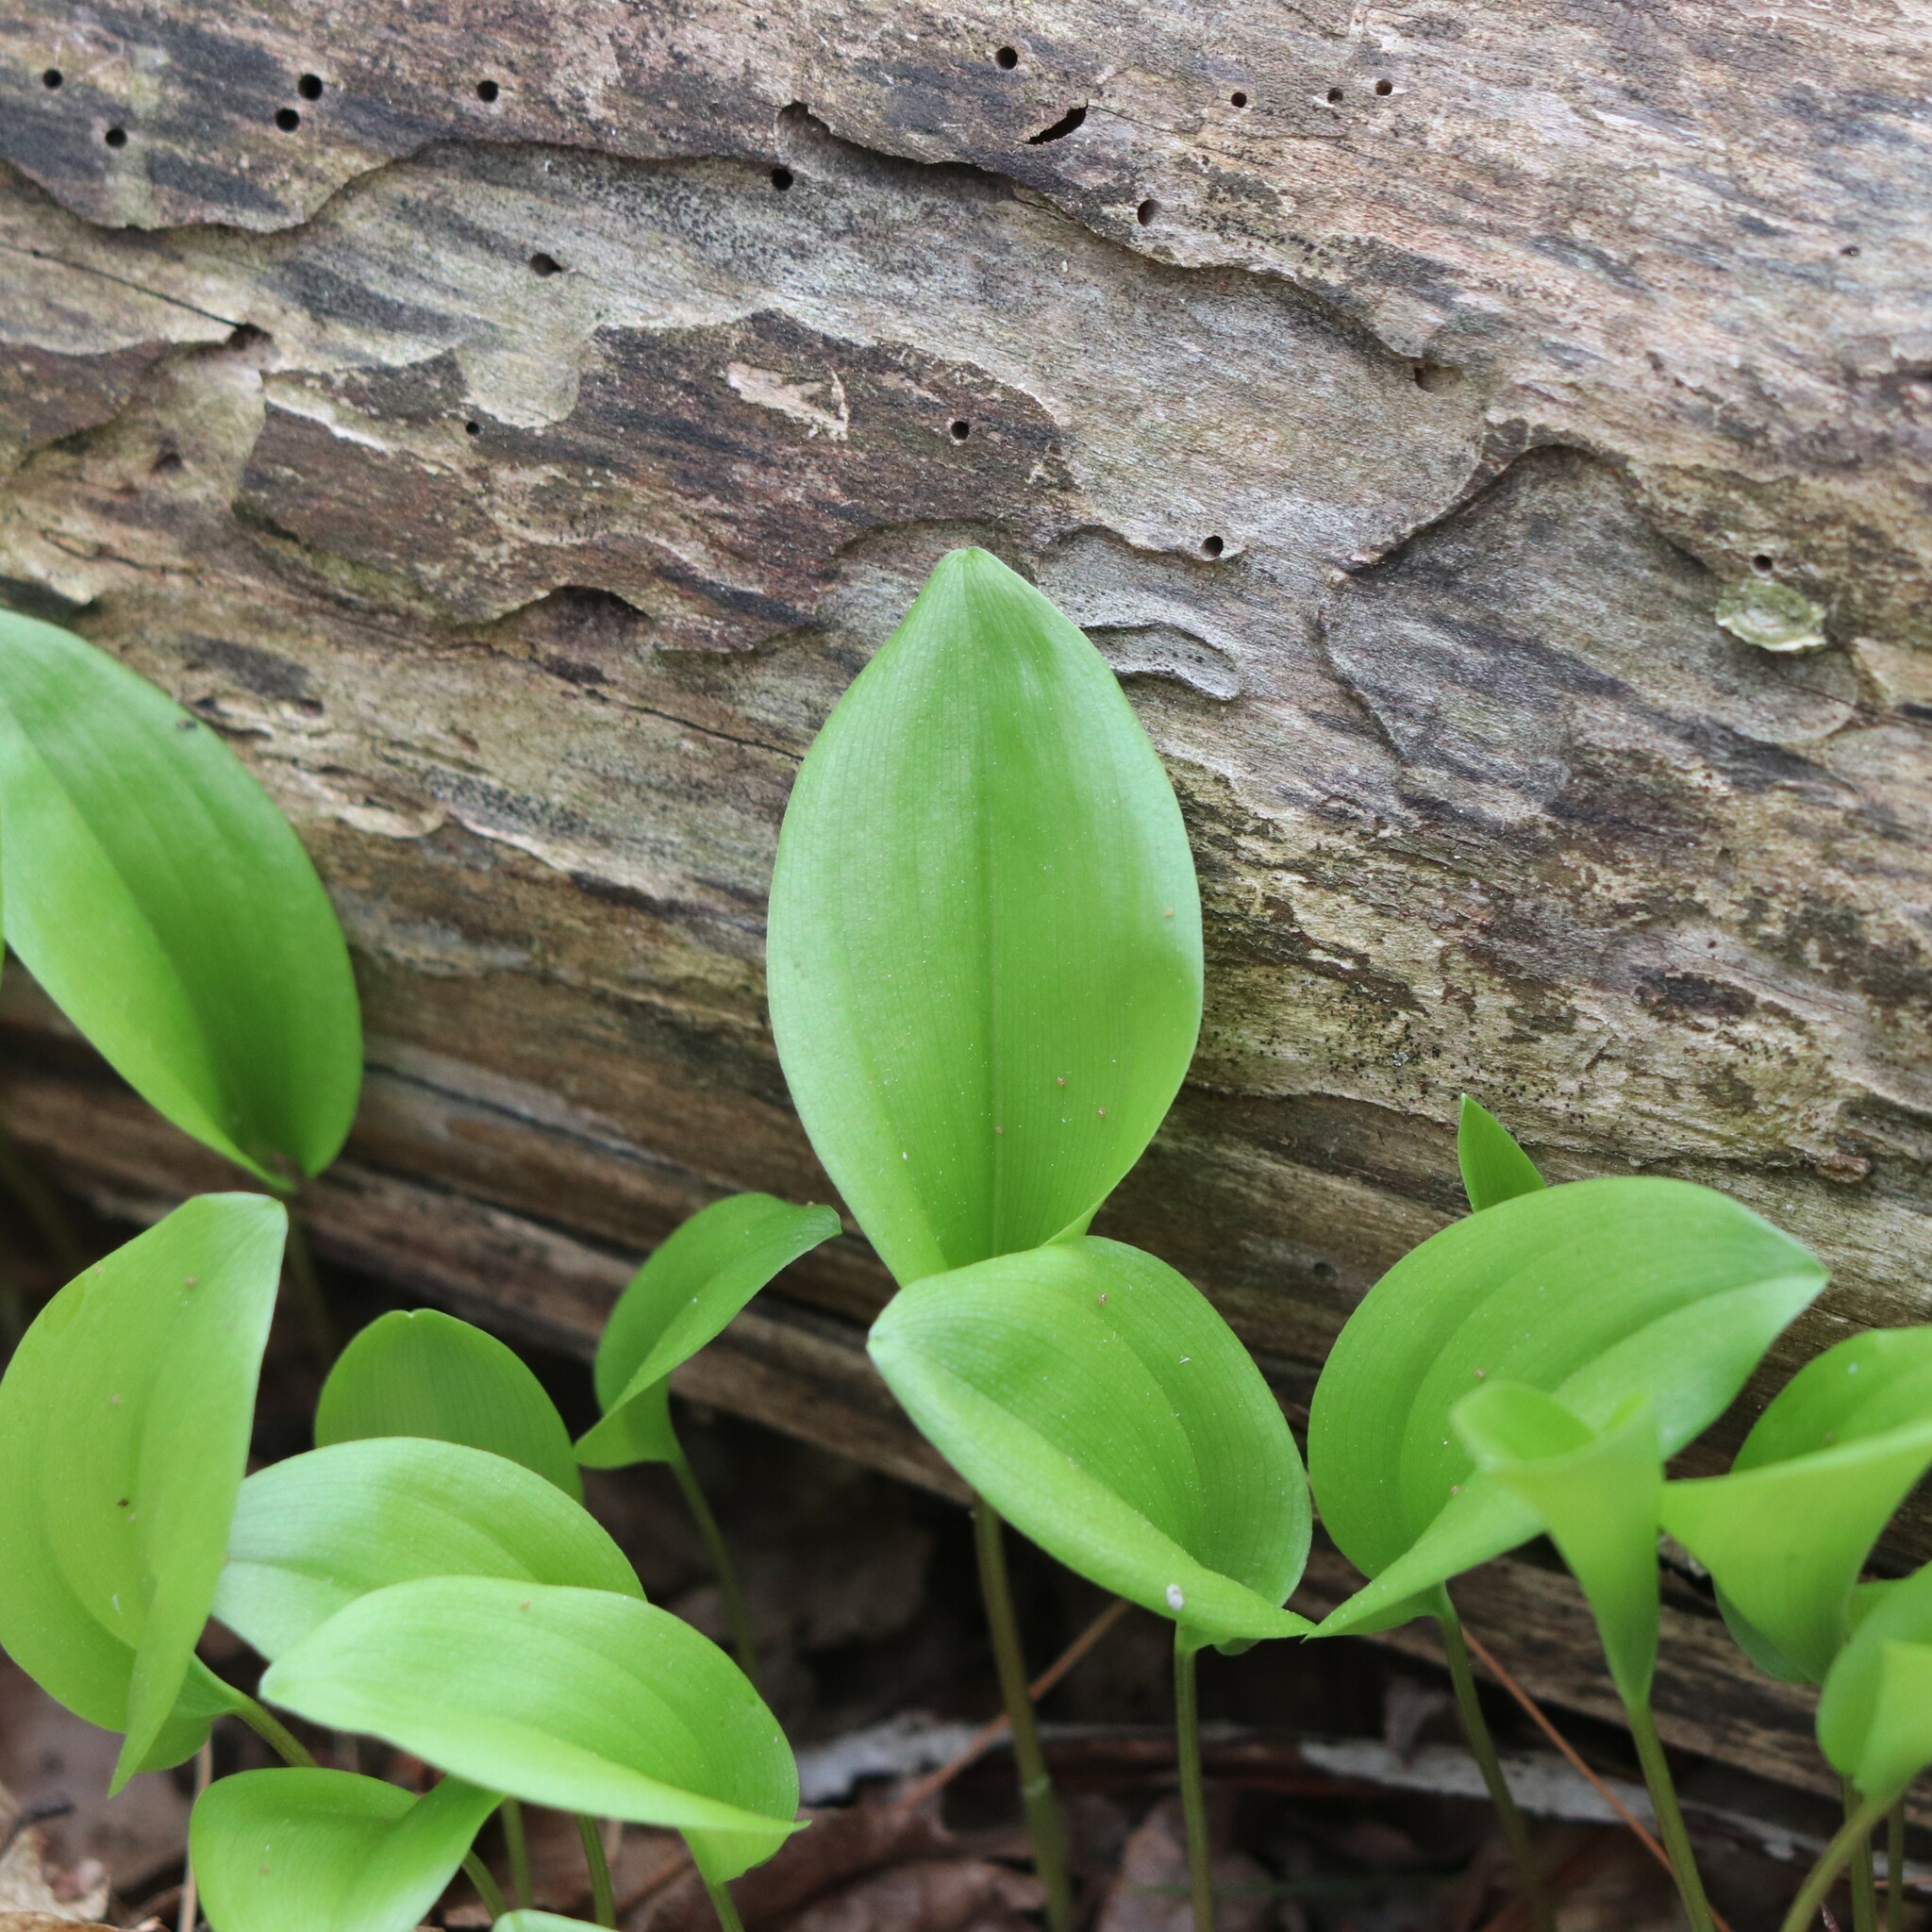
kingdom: Plantae
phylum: Tracheophyta
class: Liliopsida
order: Asparagales
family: Asparagaceae
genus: Maianthemum
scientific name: Maianthemum canadense
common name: False lily-of-the-valley
